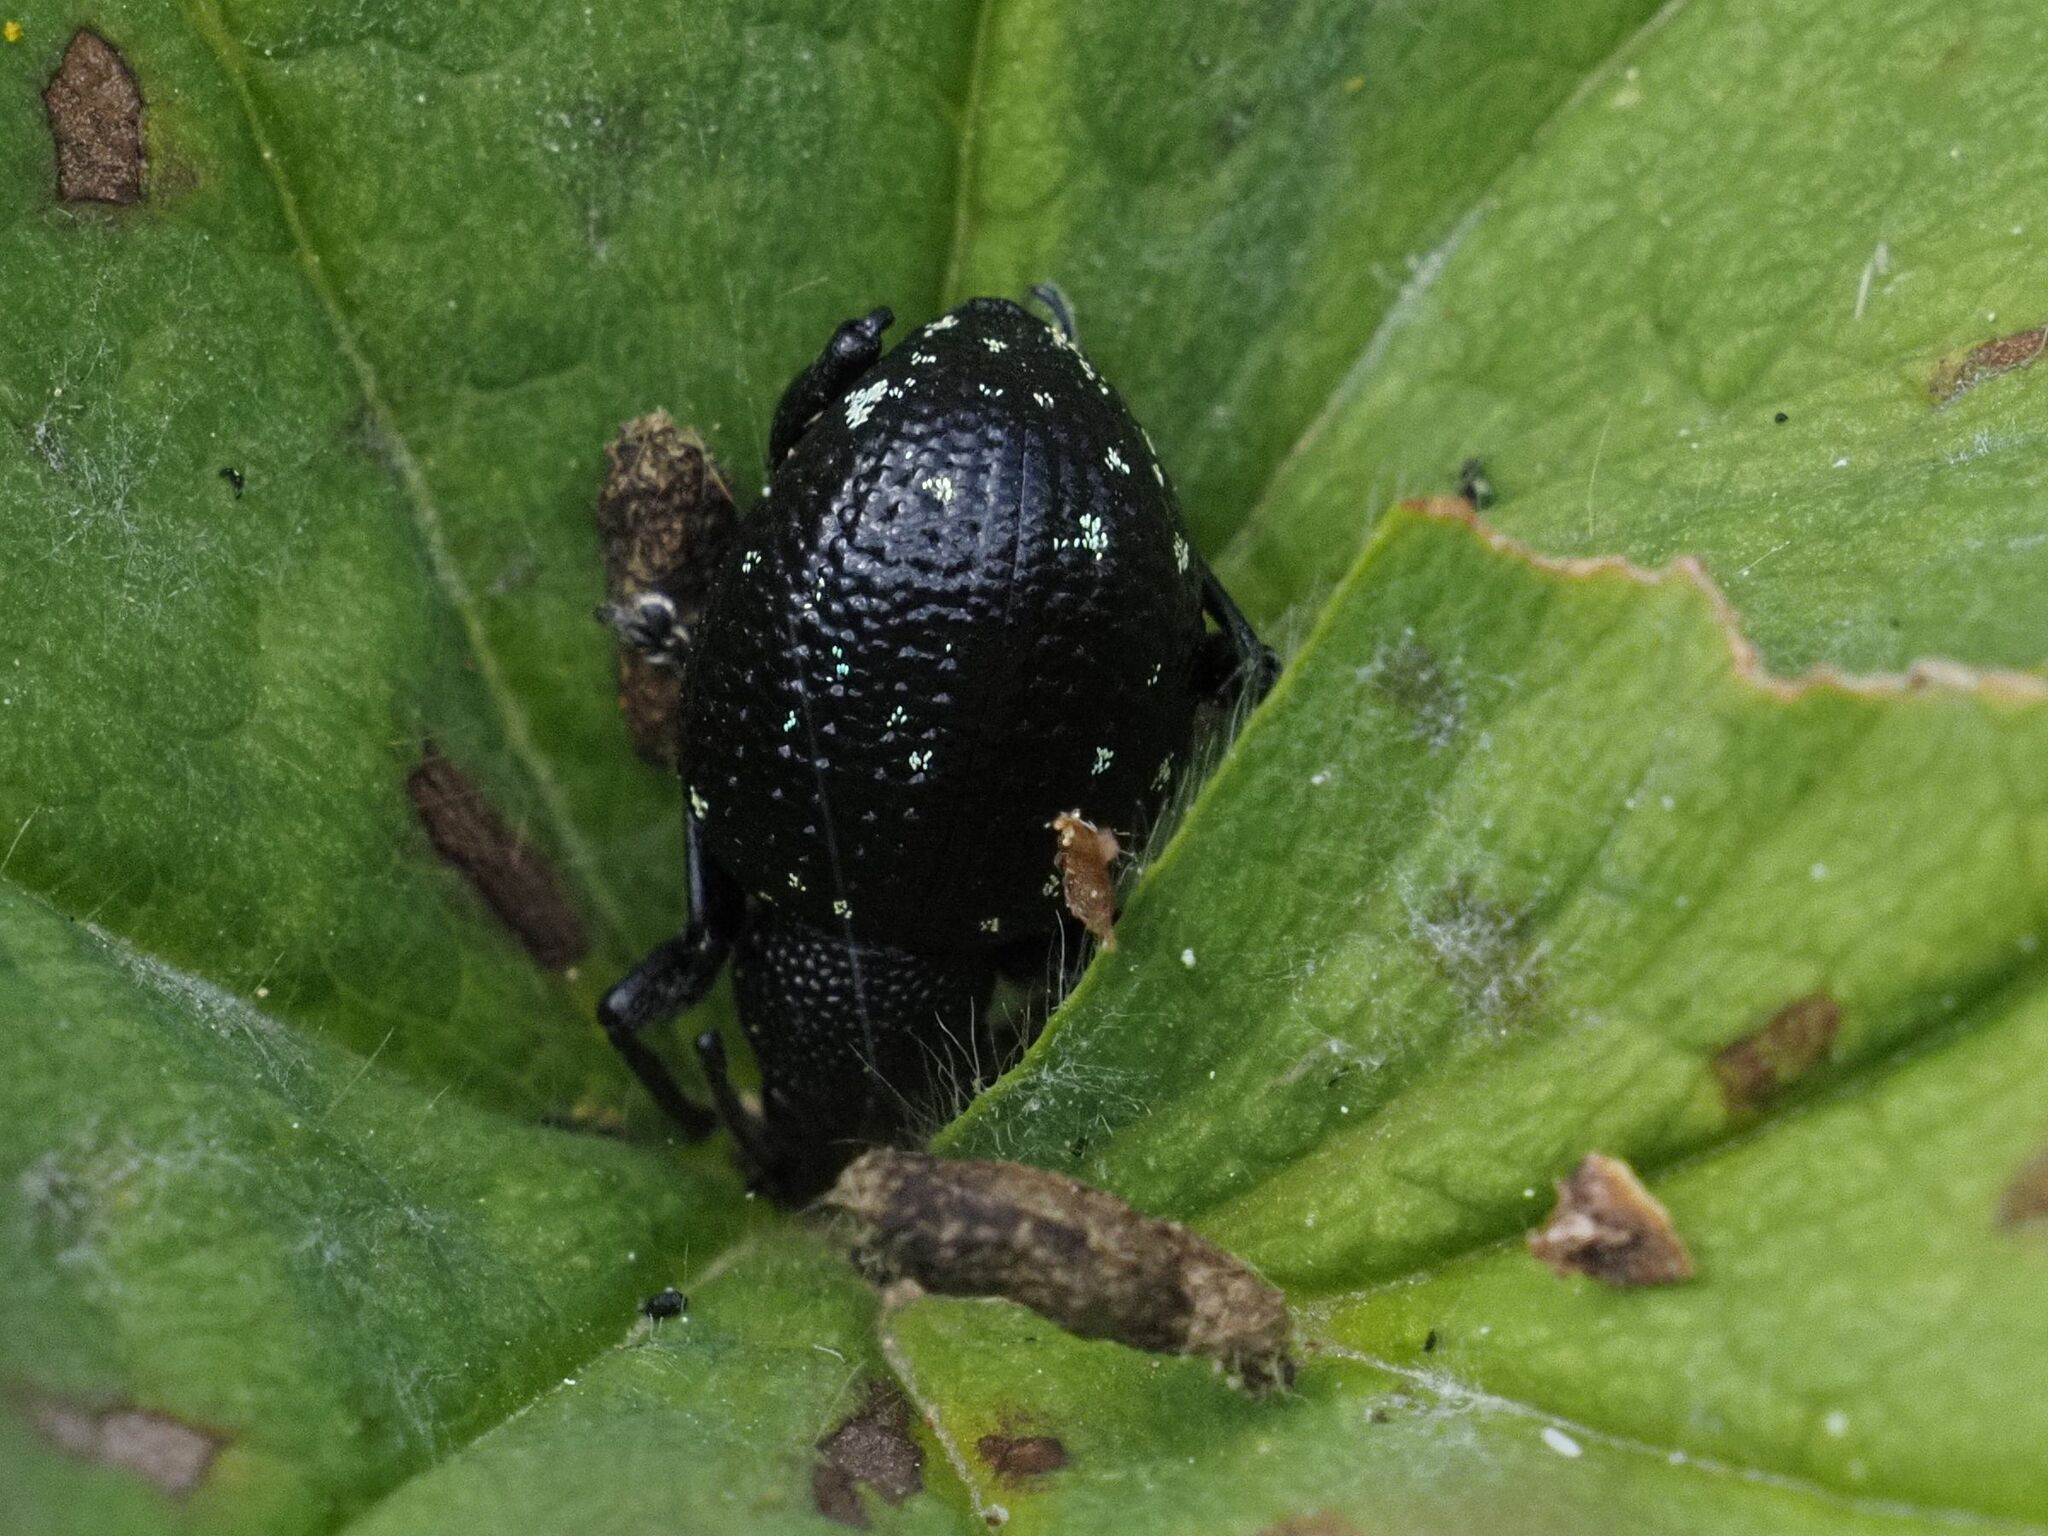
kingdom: Animalia
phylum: Arthropoda
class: Insecta
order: Coleoptera
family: Curculionidae
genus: Otiorhynchus
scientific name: Otiorhynchus gemmatus
